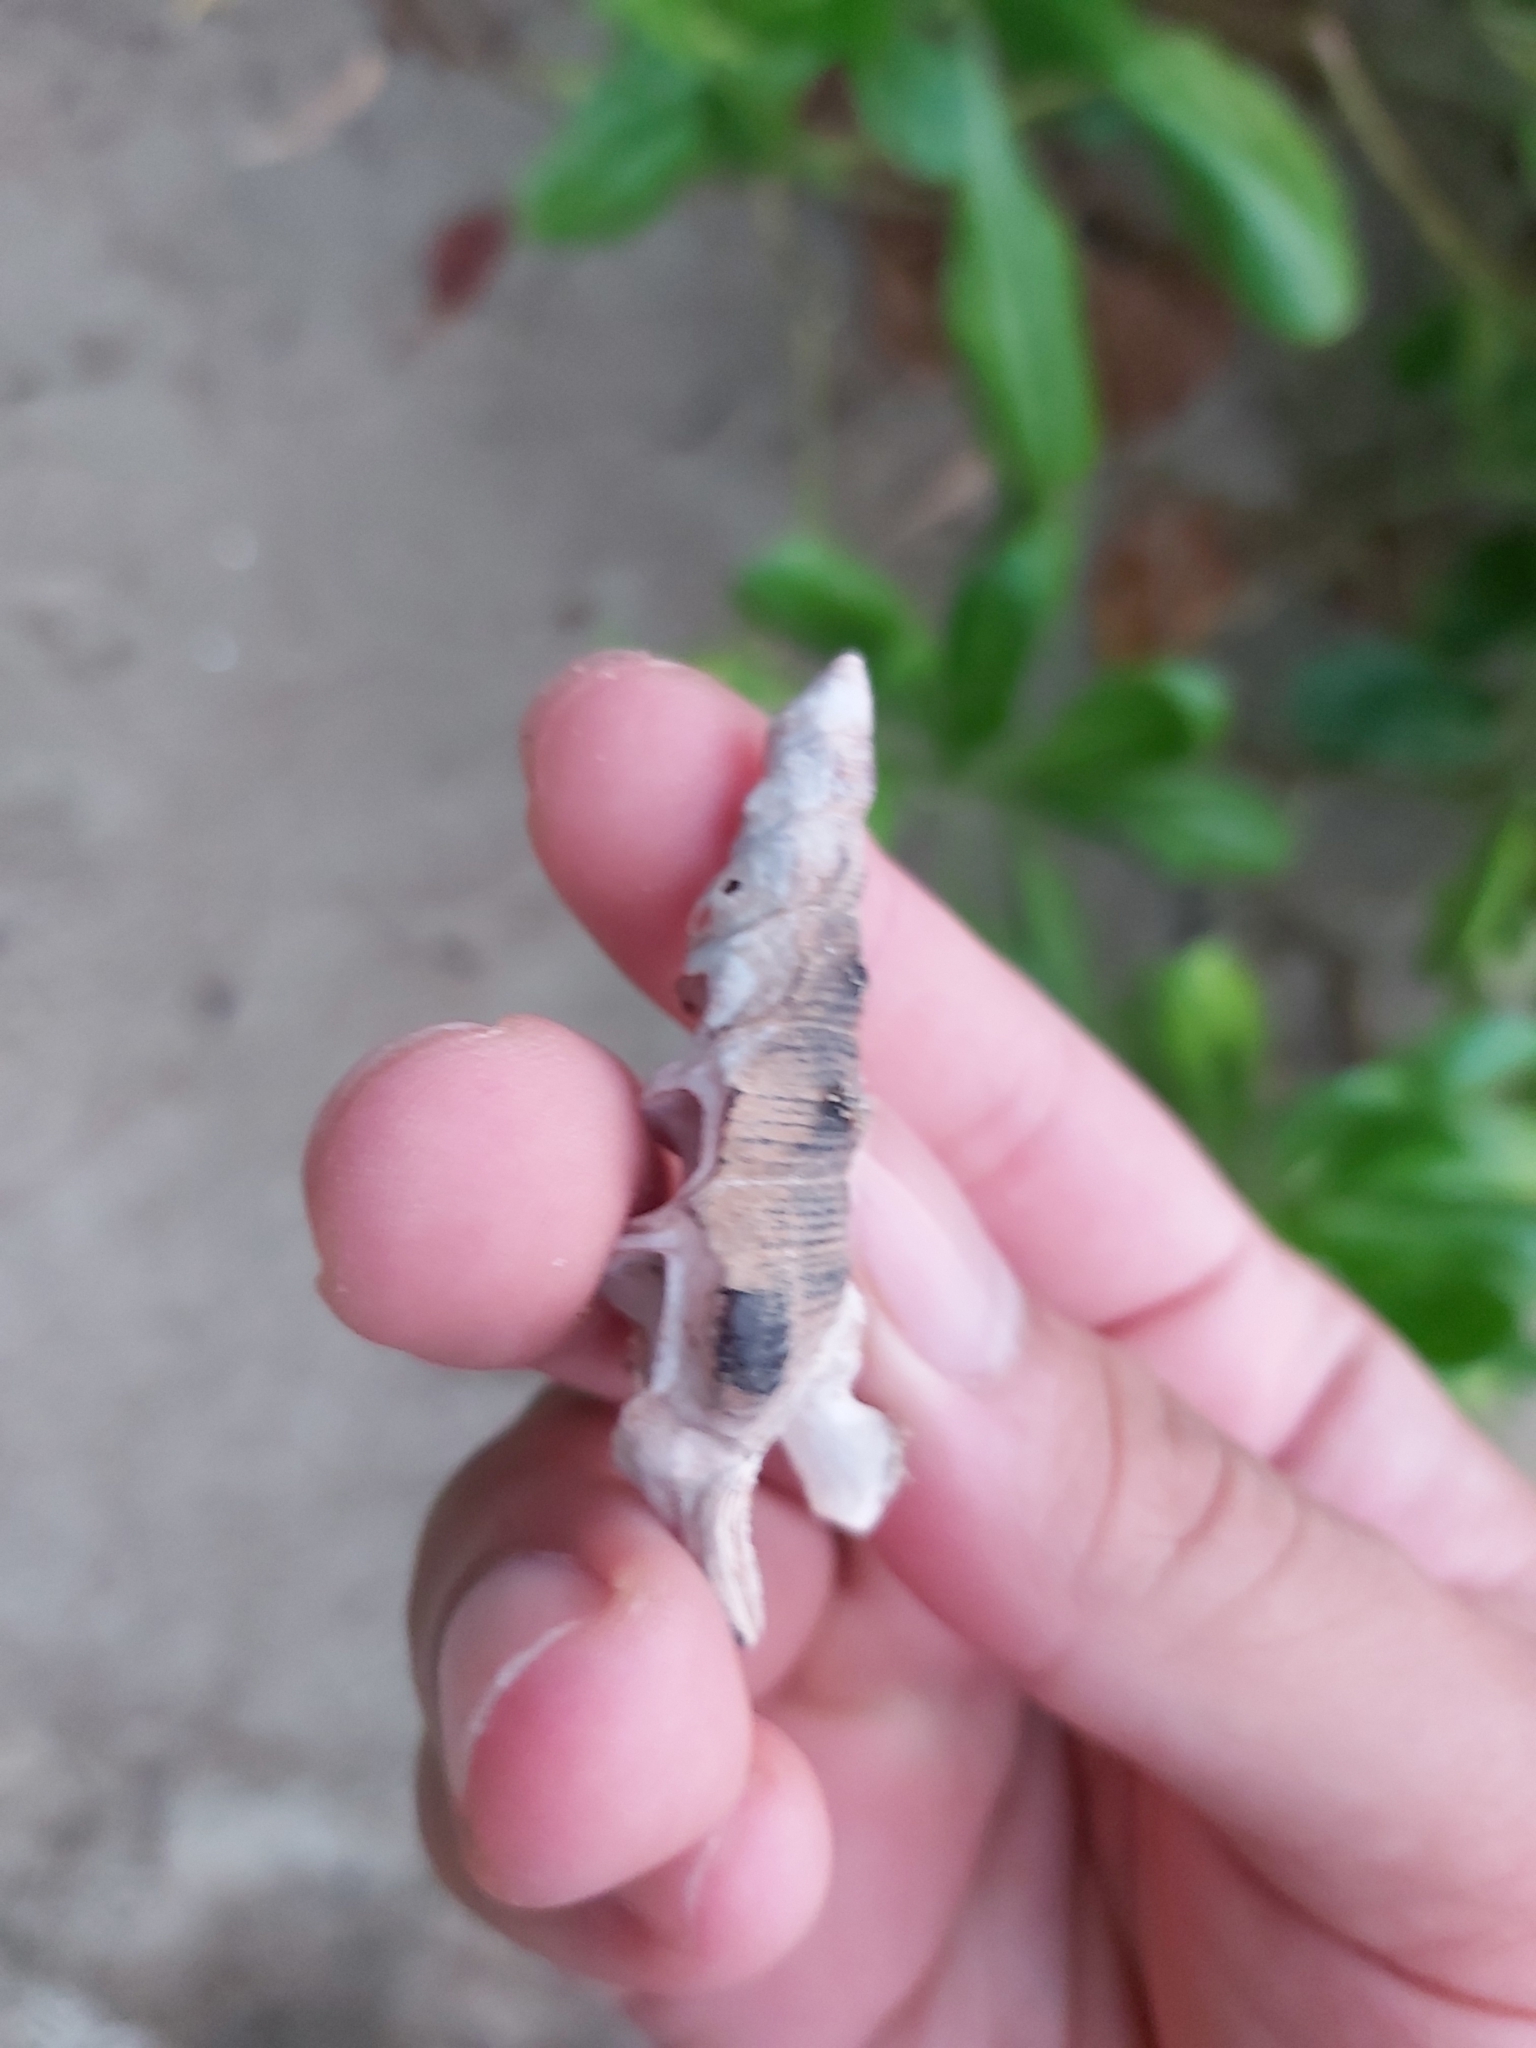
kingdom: Animalia
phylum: Mollusca
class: Gastropoda
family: Batillariidae
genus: Pyrazus
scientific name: Pyrazus ebeninus
